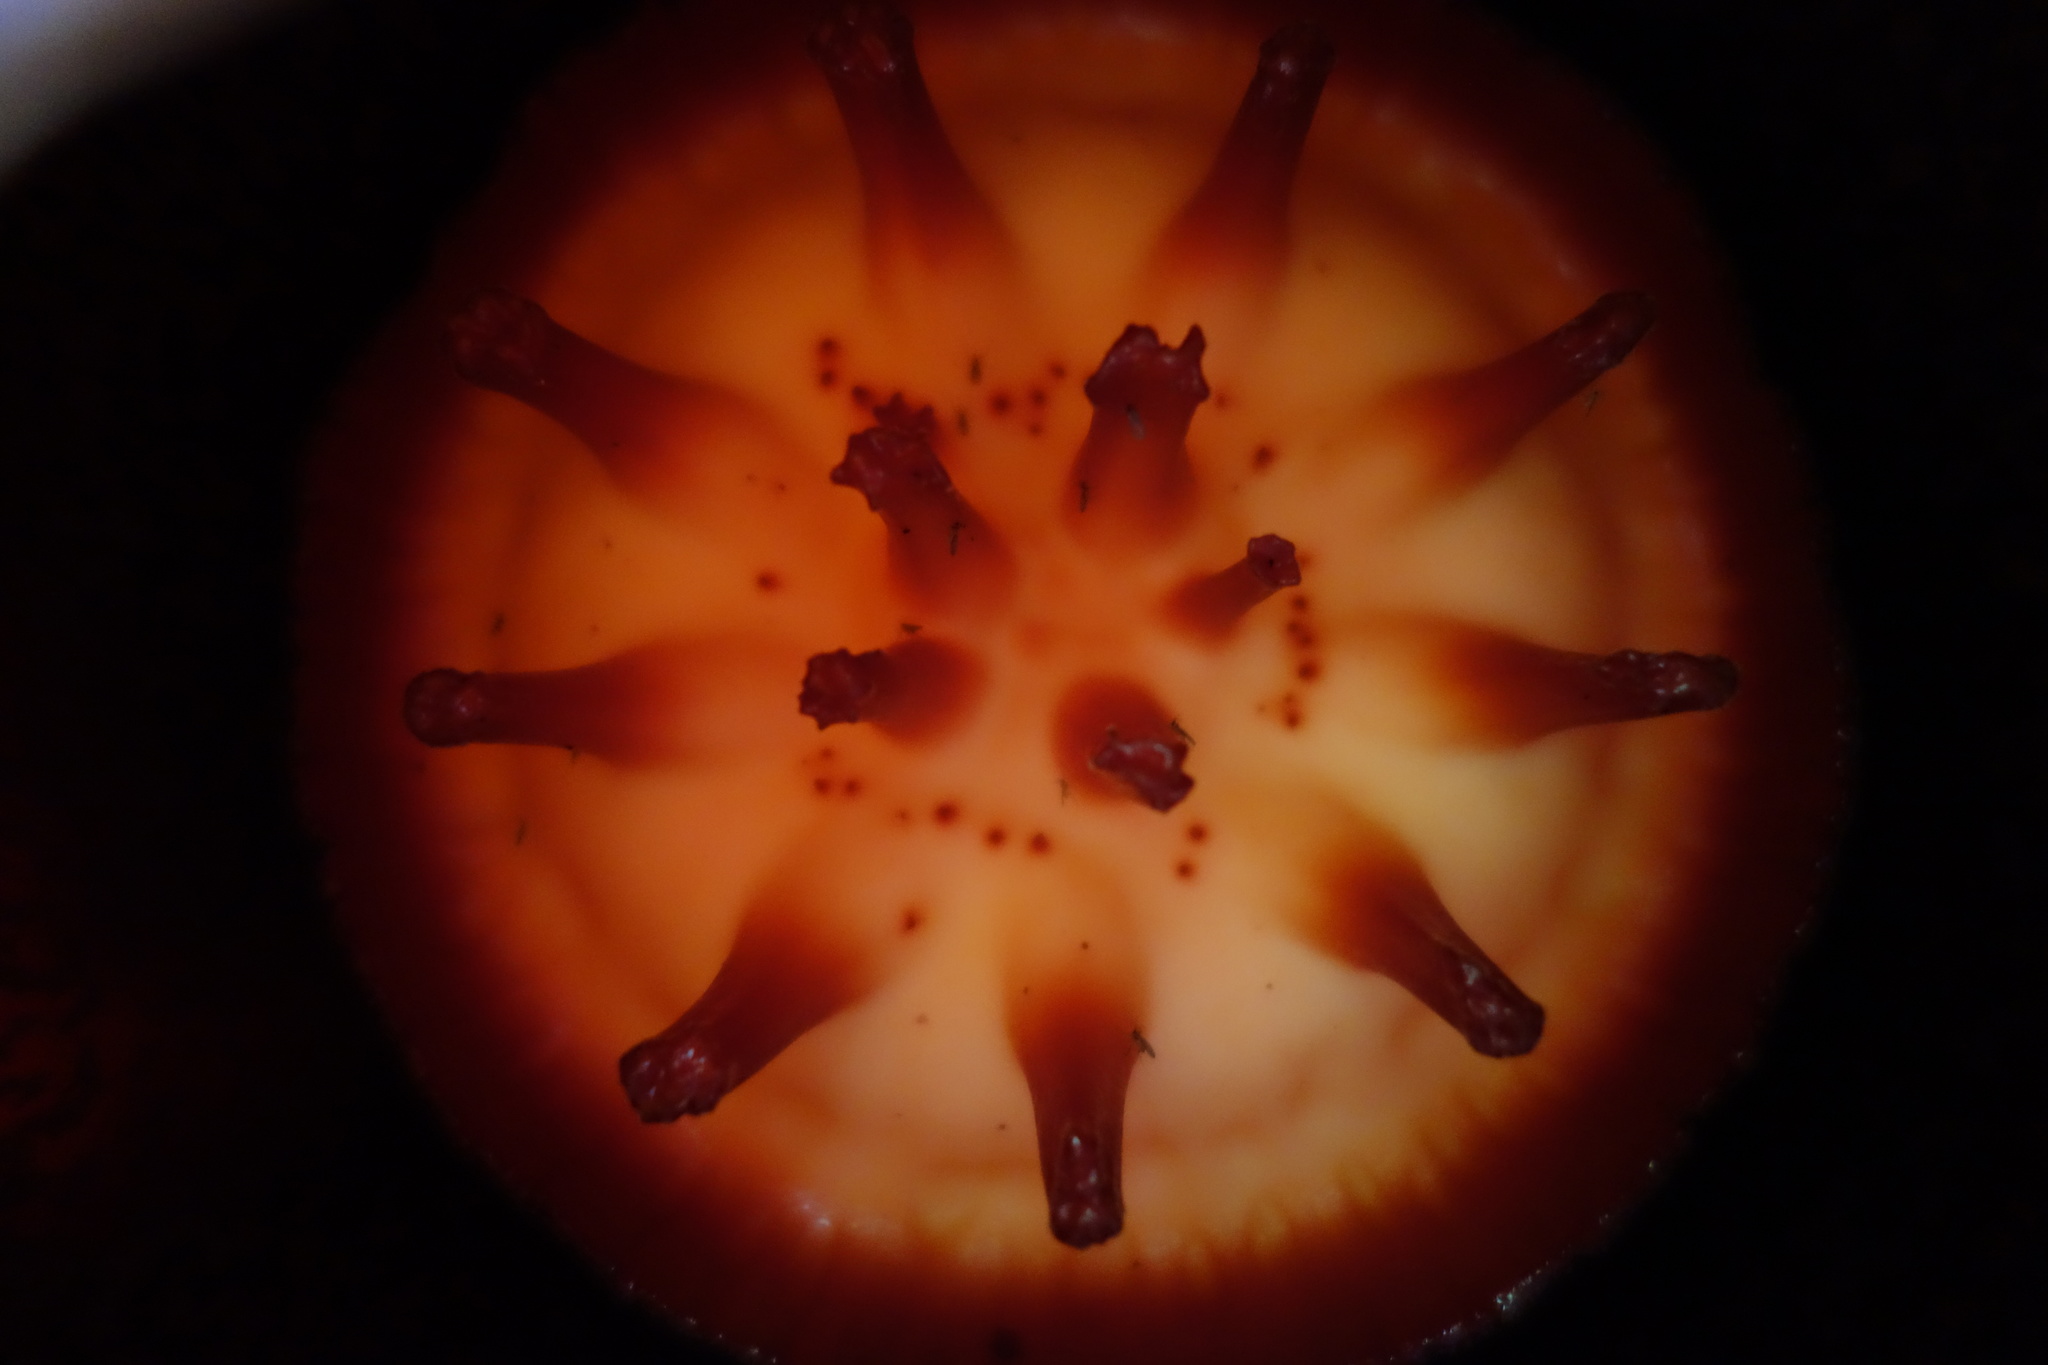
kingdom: Plantae
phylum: Tracheophyta
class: Magnoliopsida
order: Malpighiales
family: Rafflesiaceae
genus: Rafflesia
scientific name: Rafflesia micropylora
